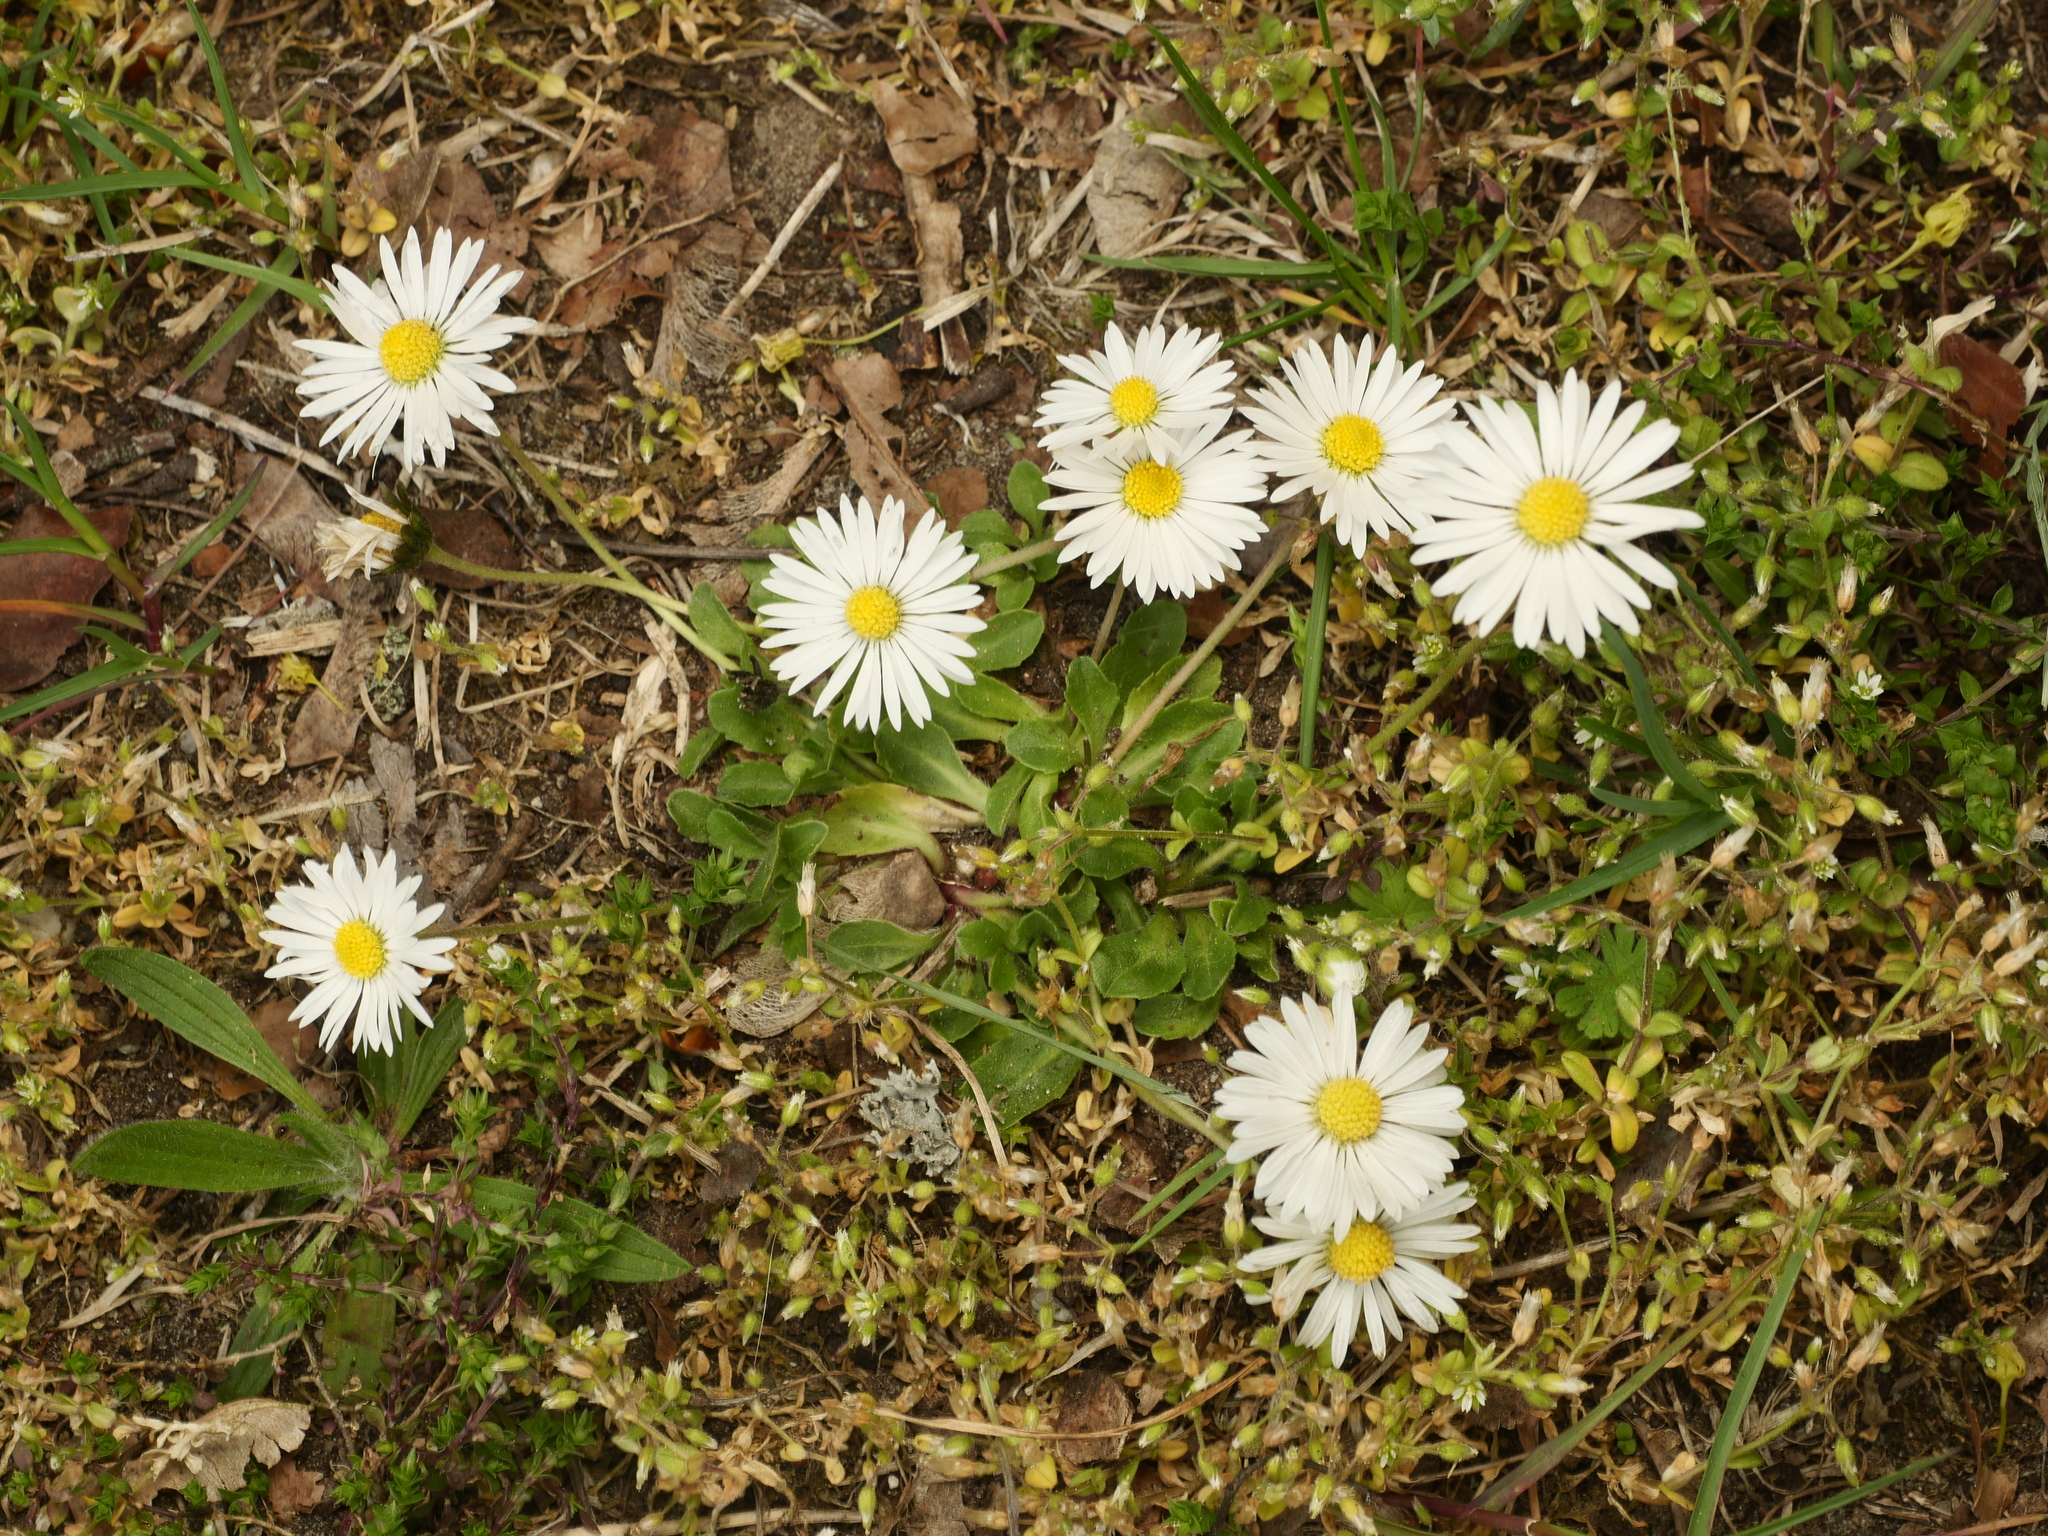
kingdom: Plantae
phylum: Tracheophyta
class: Magnoliopsida
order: Asterales
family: Asteraceae
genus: Bellis
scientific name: Bellis perennis
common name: Lawndaisy
